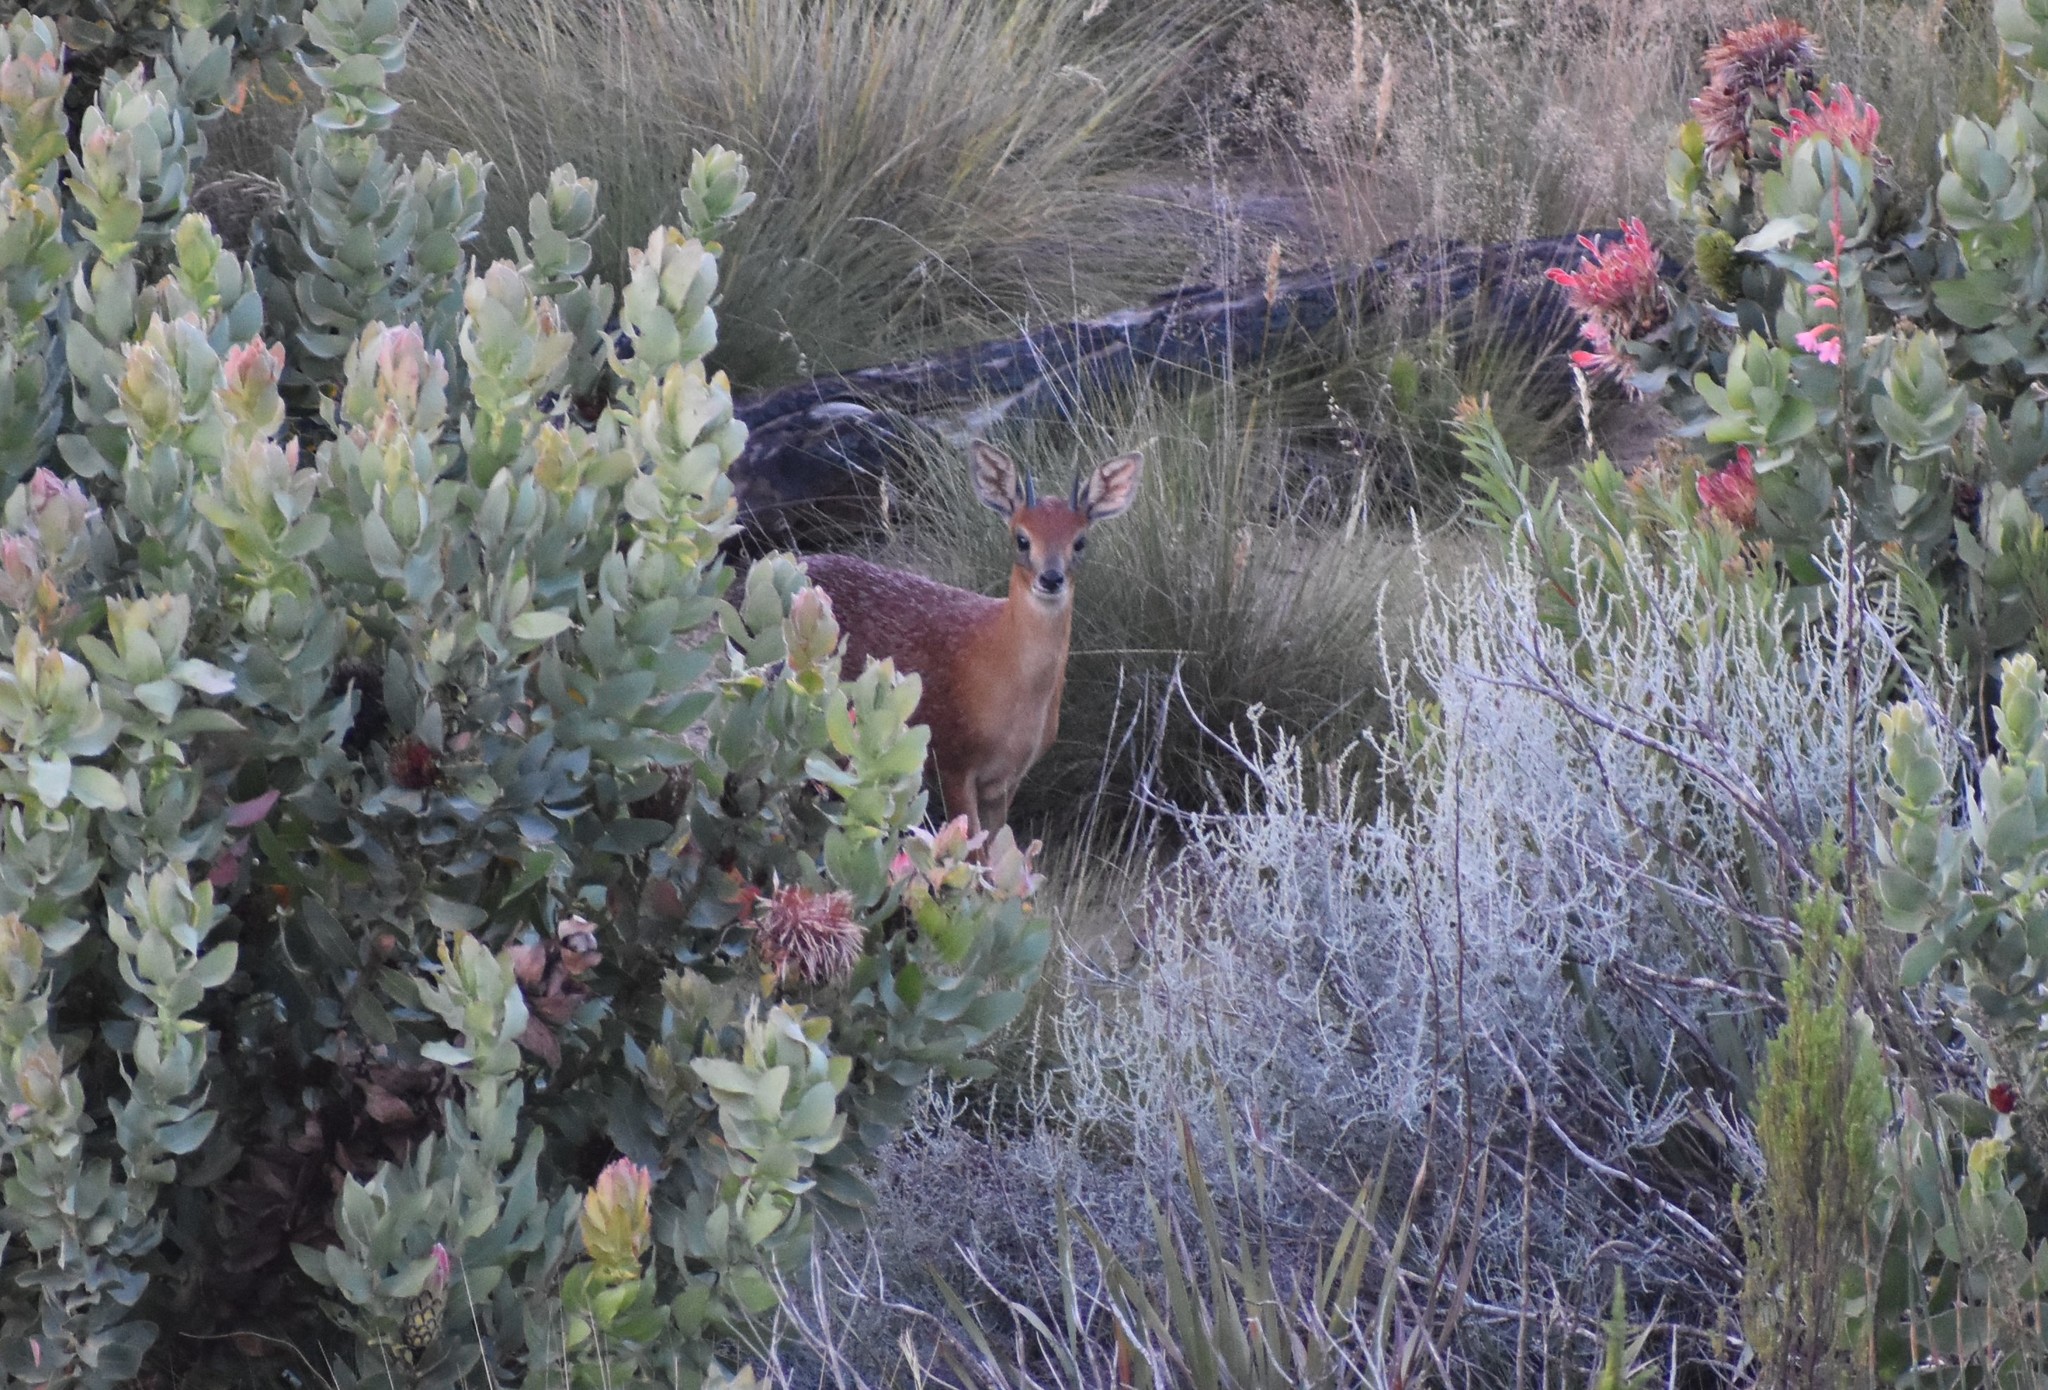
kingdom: Animalia
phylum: Chordata
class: Mammalia
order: Artiodactyla
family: Bovidae
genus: Raphicerus
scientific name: Raphicerus melanotis
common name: Cape grysbok
